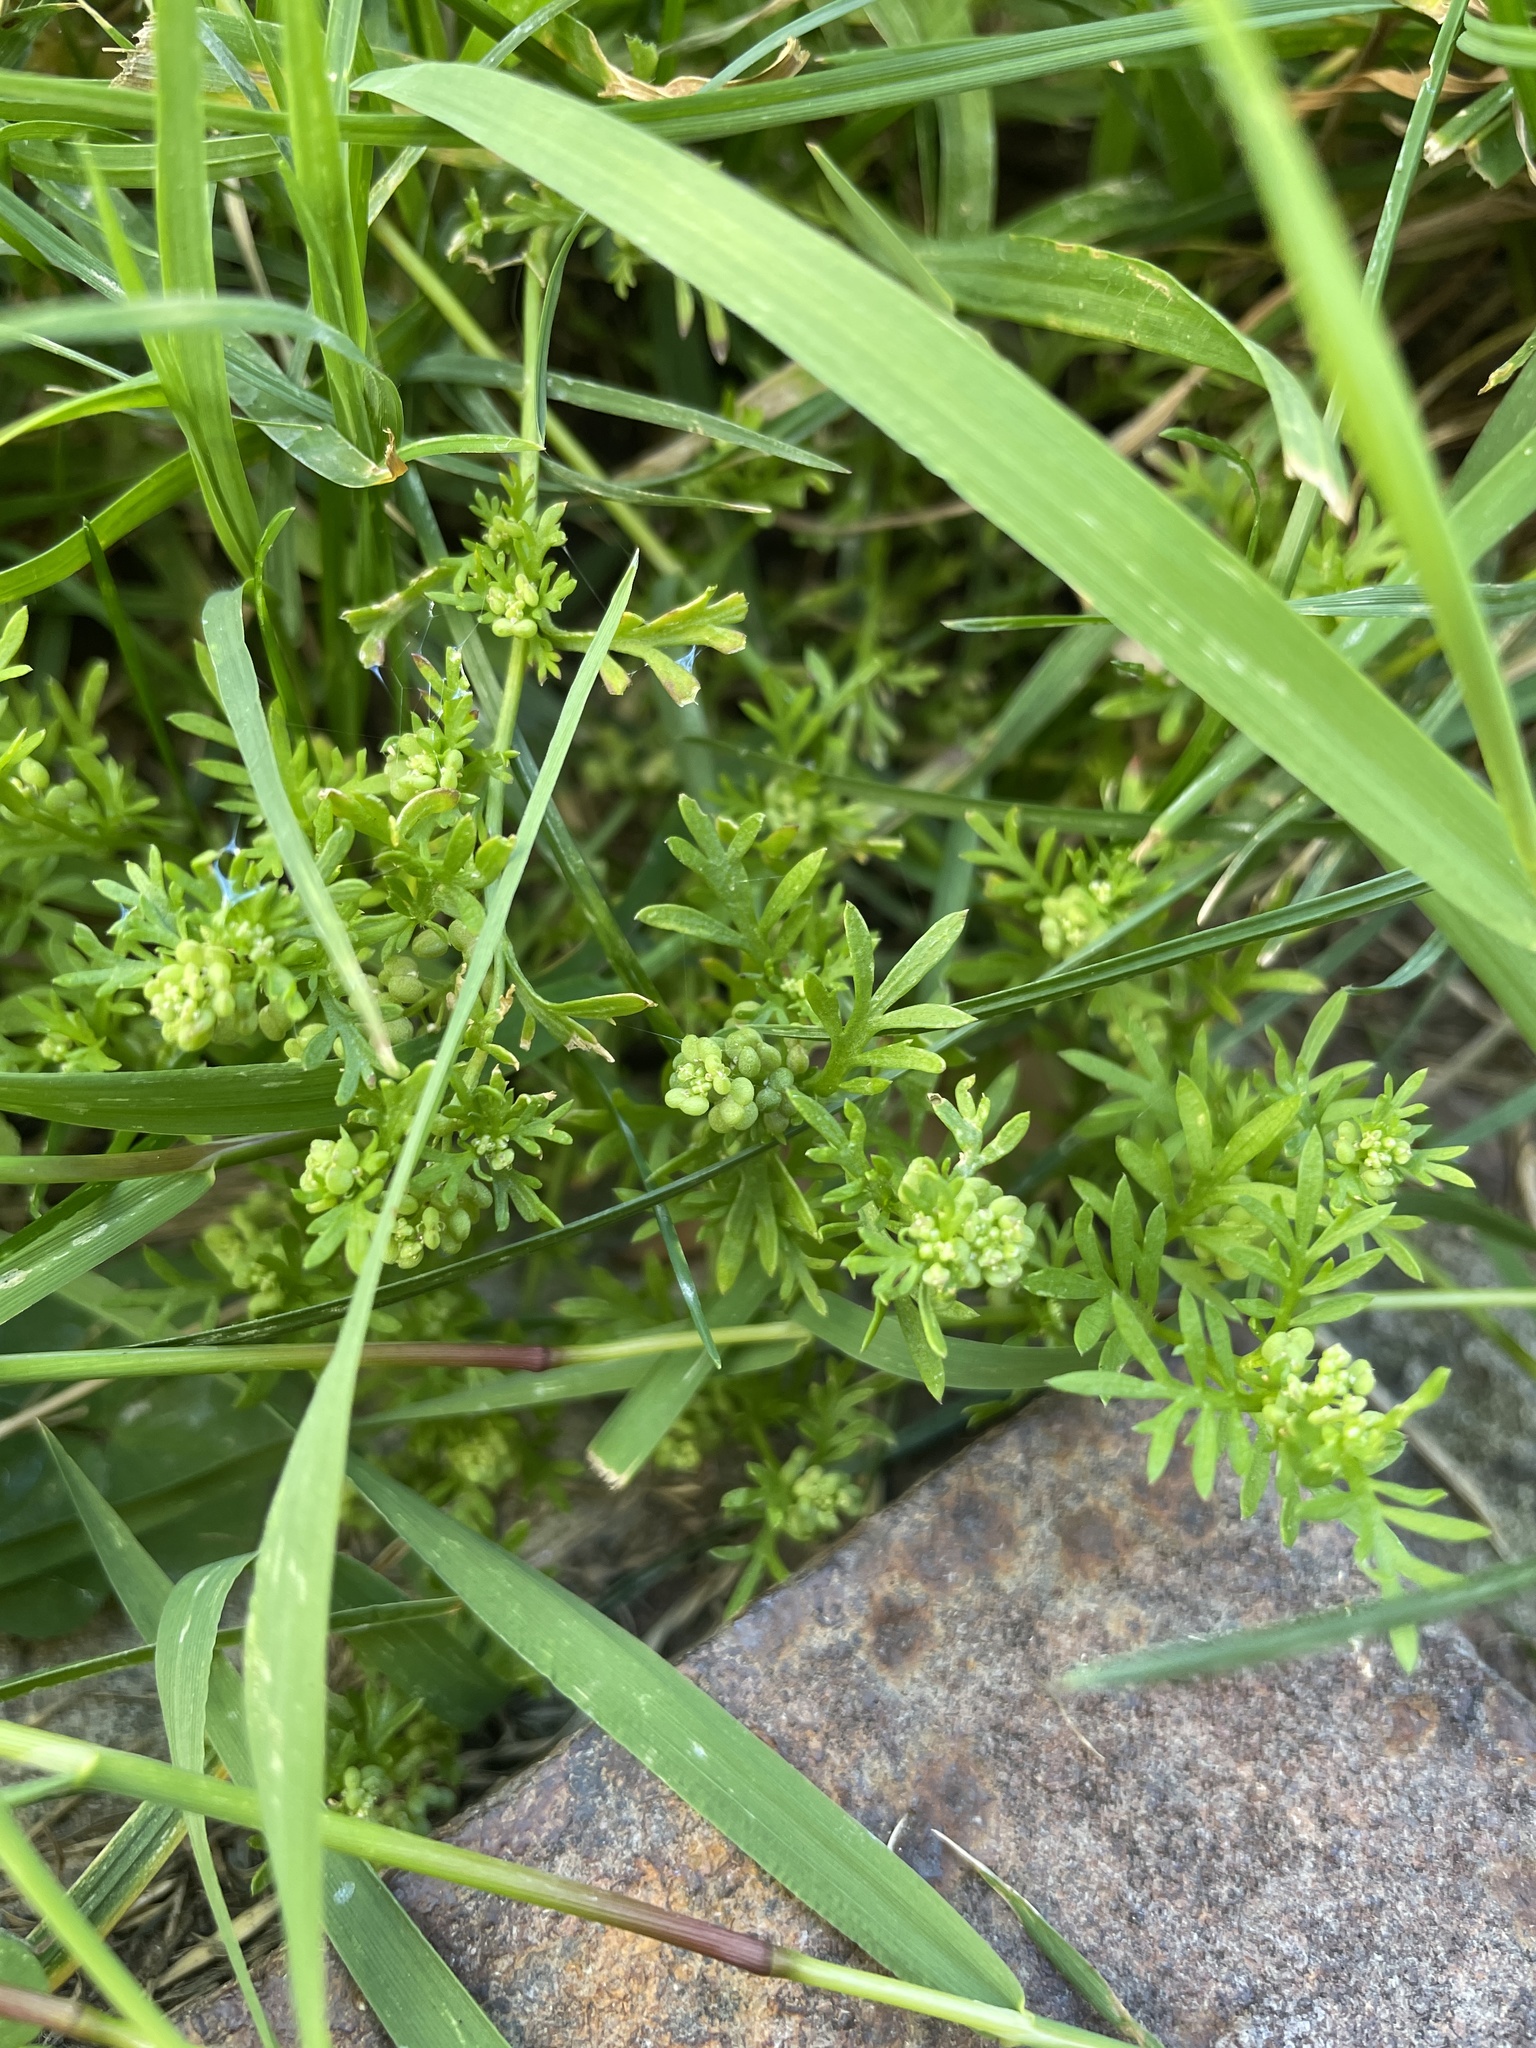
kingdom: Plantae
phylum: Tracheophyta
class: Magnoliopsida
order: Brassicales
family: Brassicaceae
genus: Lepidium
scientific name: Lepidium didymum
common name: Lesser swinecress
